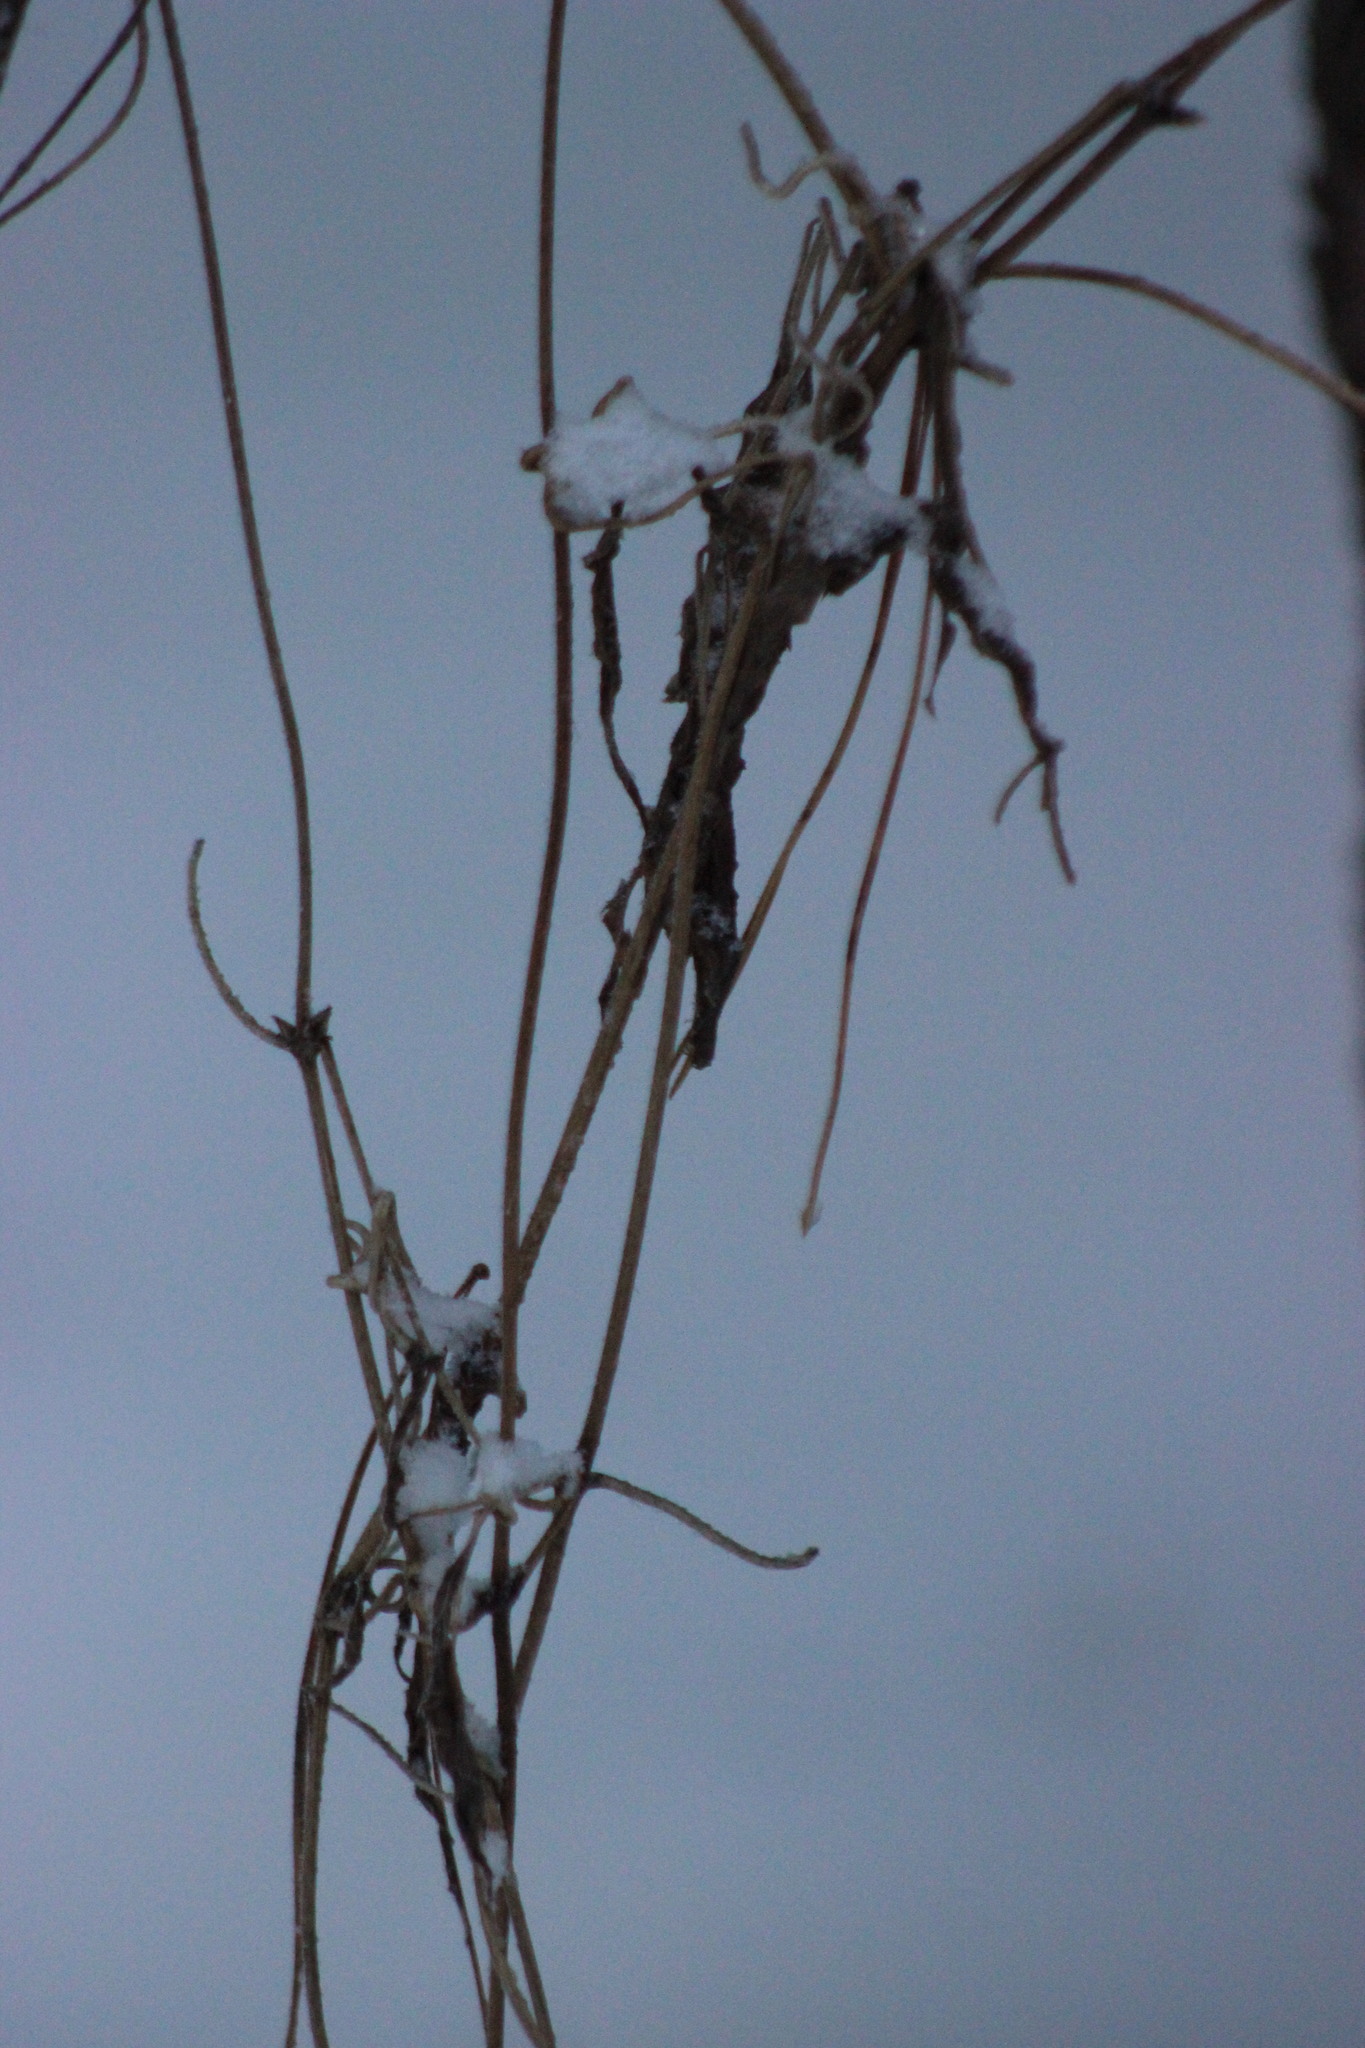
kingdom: Plantae
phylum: Tracheophyta
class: Magnoliopsida
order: Ranunculales
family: Ranunculaceae
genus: Clematis
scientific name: Clematis sibirica
